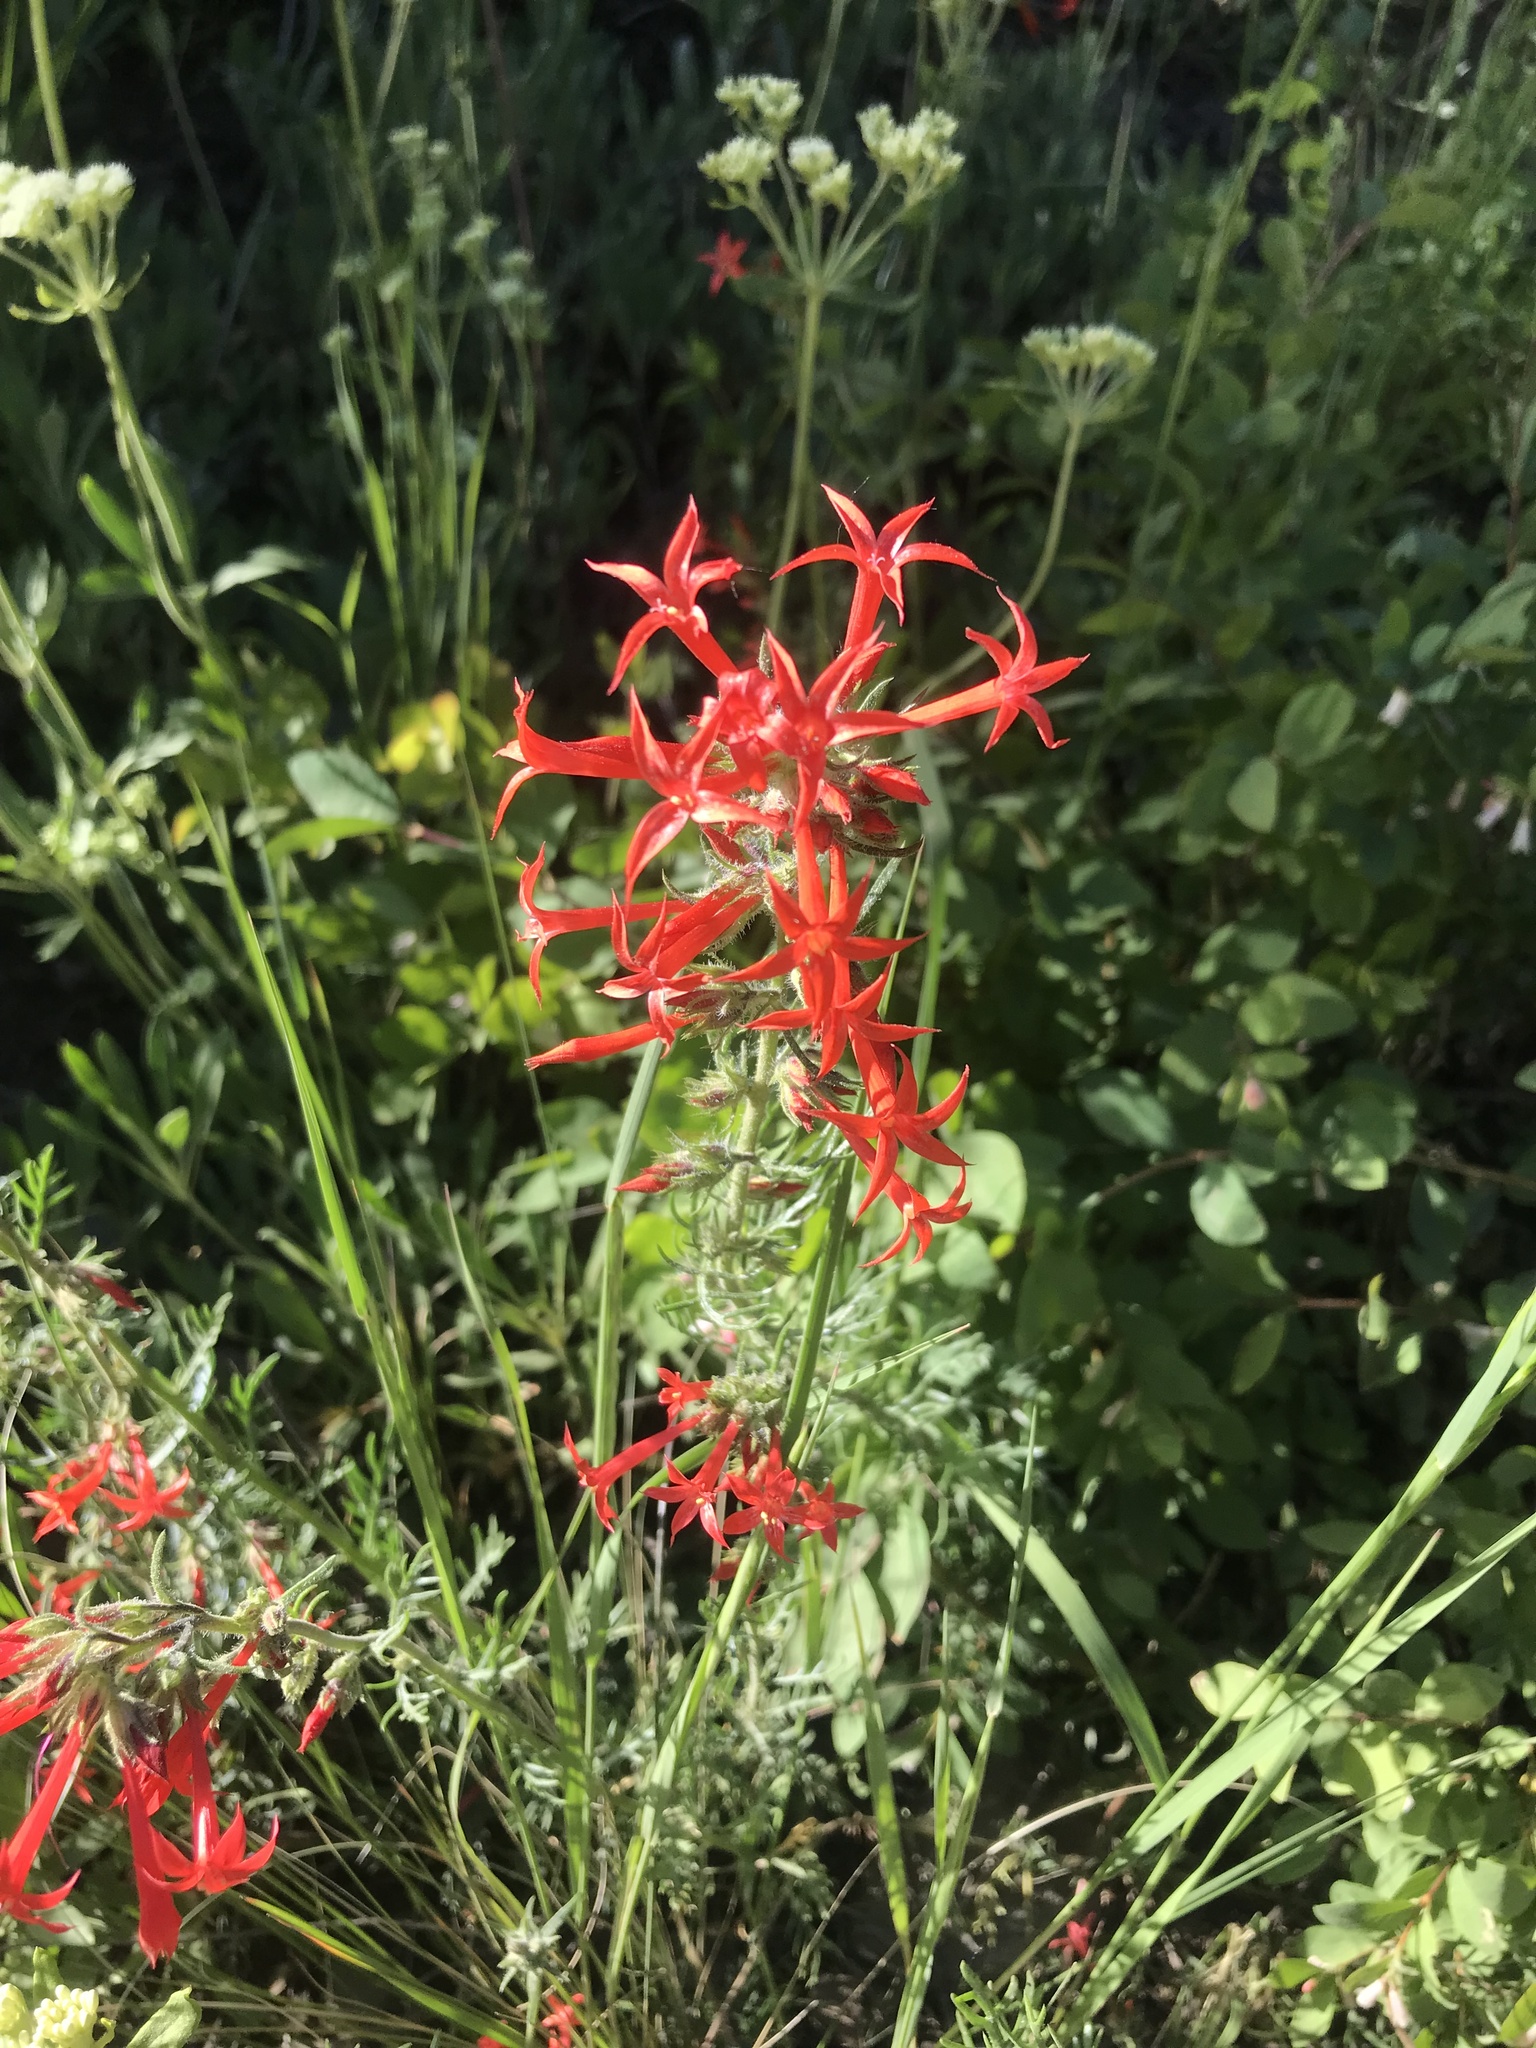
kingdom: Plantae
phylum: Tracheophyta
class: Magnoliopsida
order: Ericales
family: Polemoniaceae
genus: Ipomopsis
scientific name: Ipomopsis aggregata
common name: Scarlet gilia
